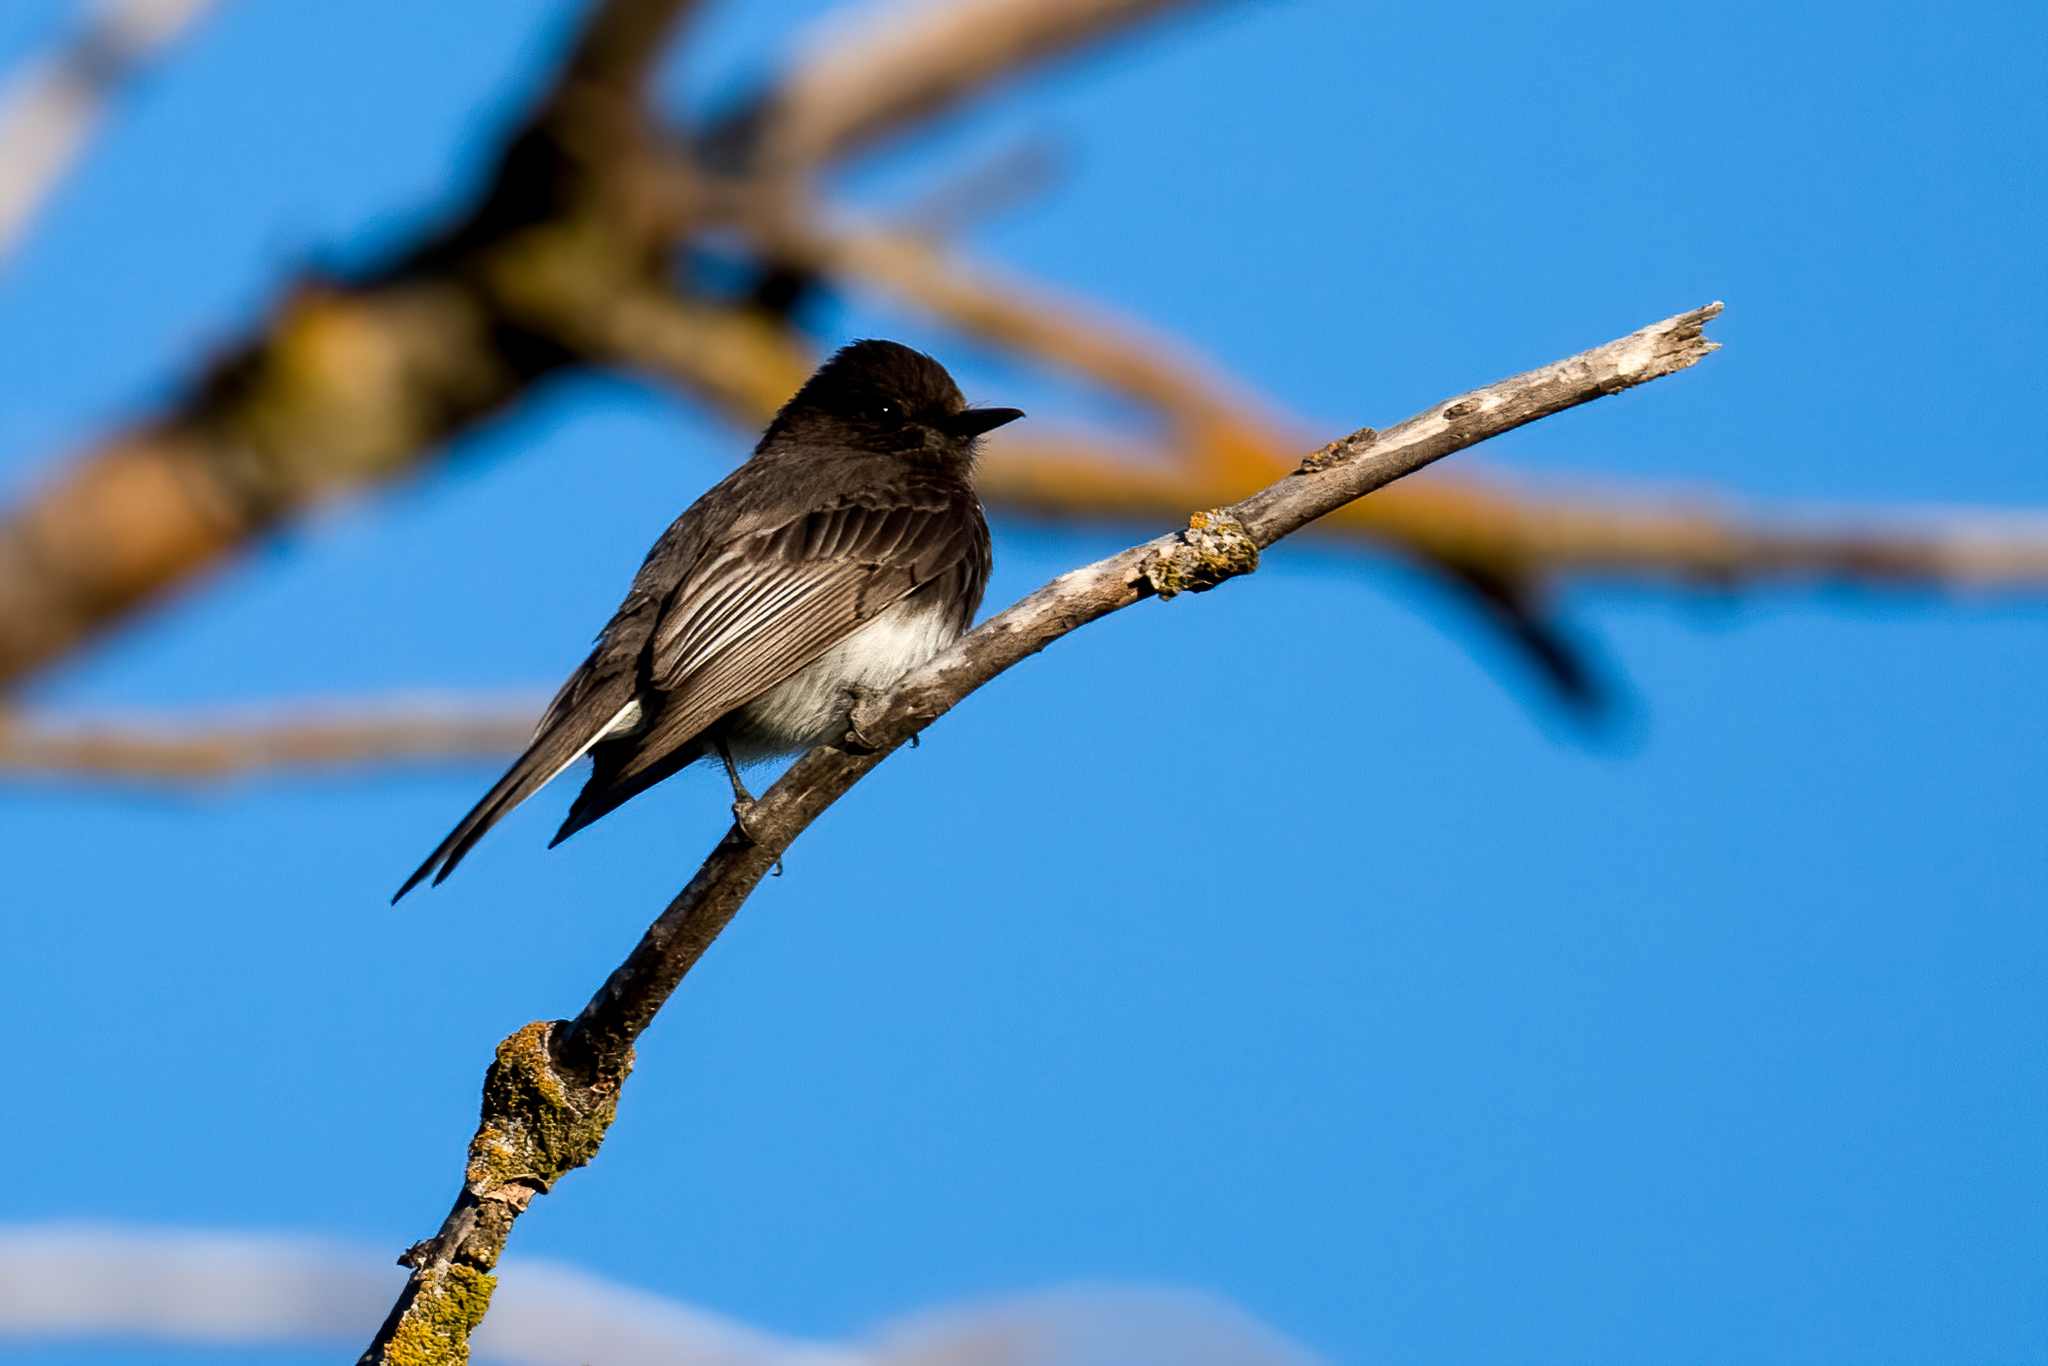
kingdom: Animalia
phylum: Chordata
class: Aves
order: Passeriformes
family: Tyrannidae
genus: Sayornis
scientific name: Sayornis nigricans
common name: Black phoebe
